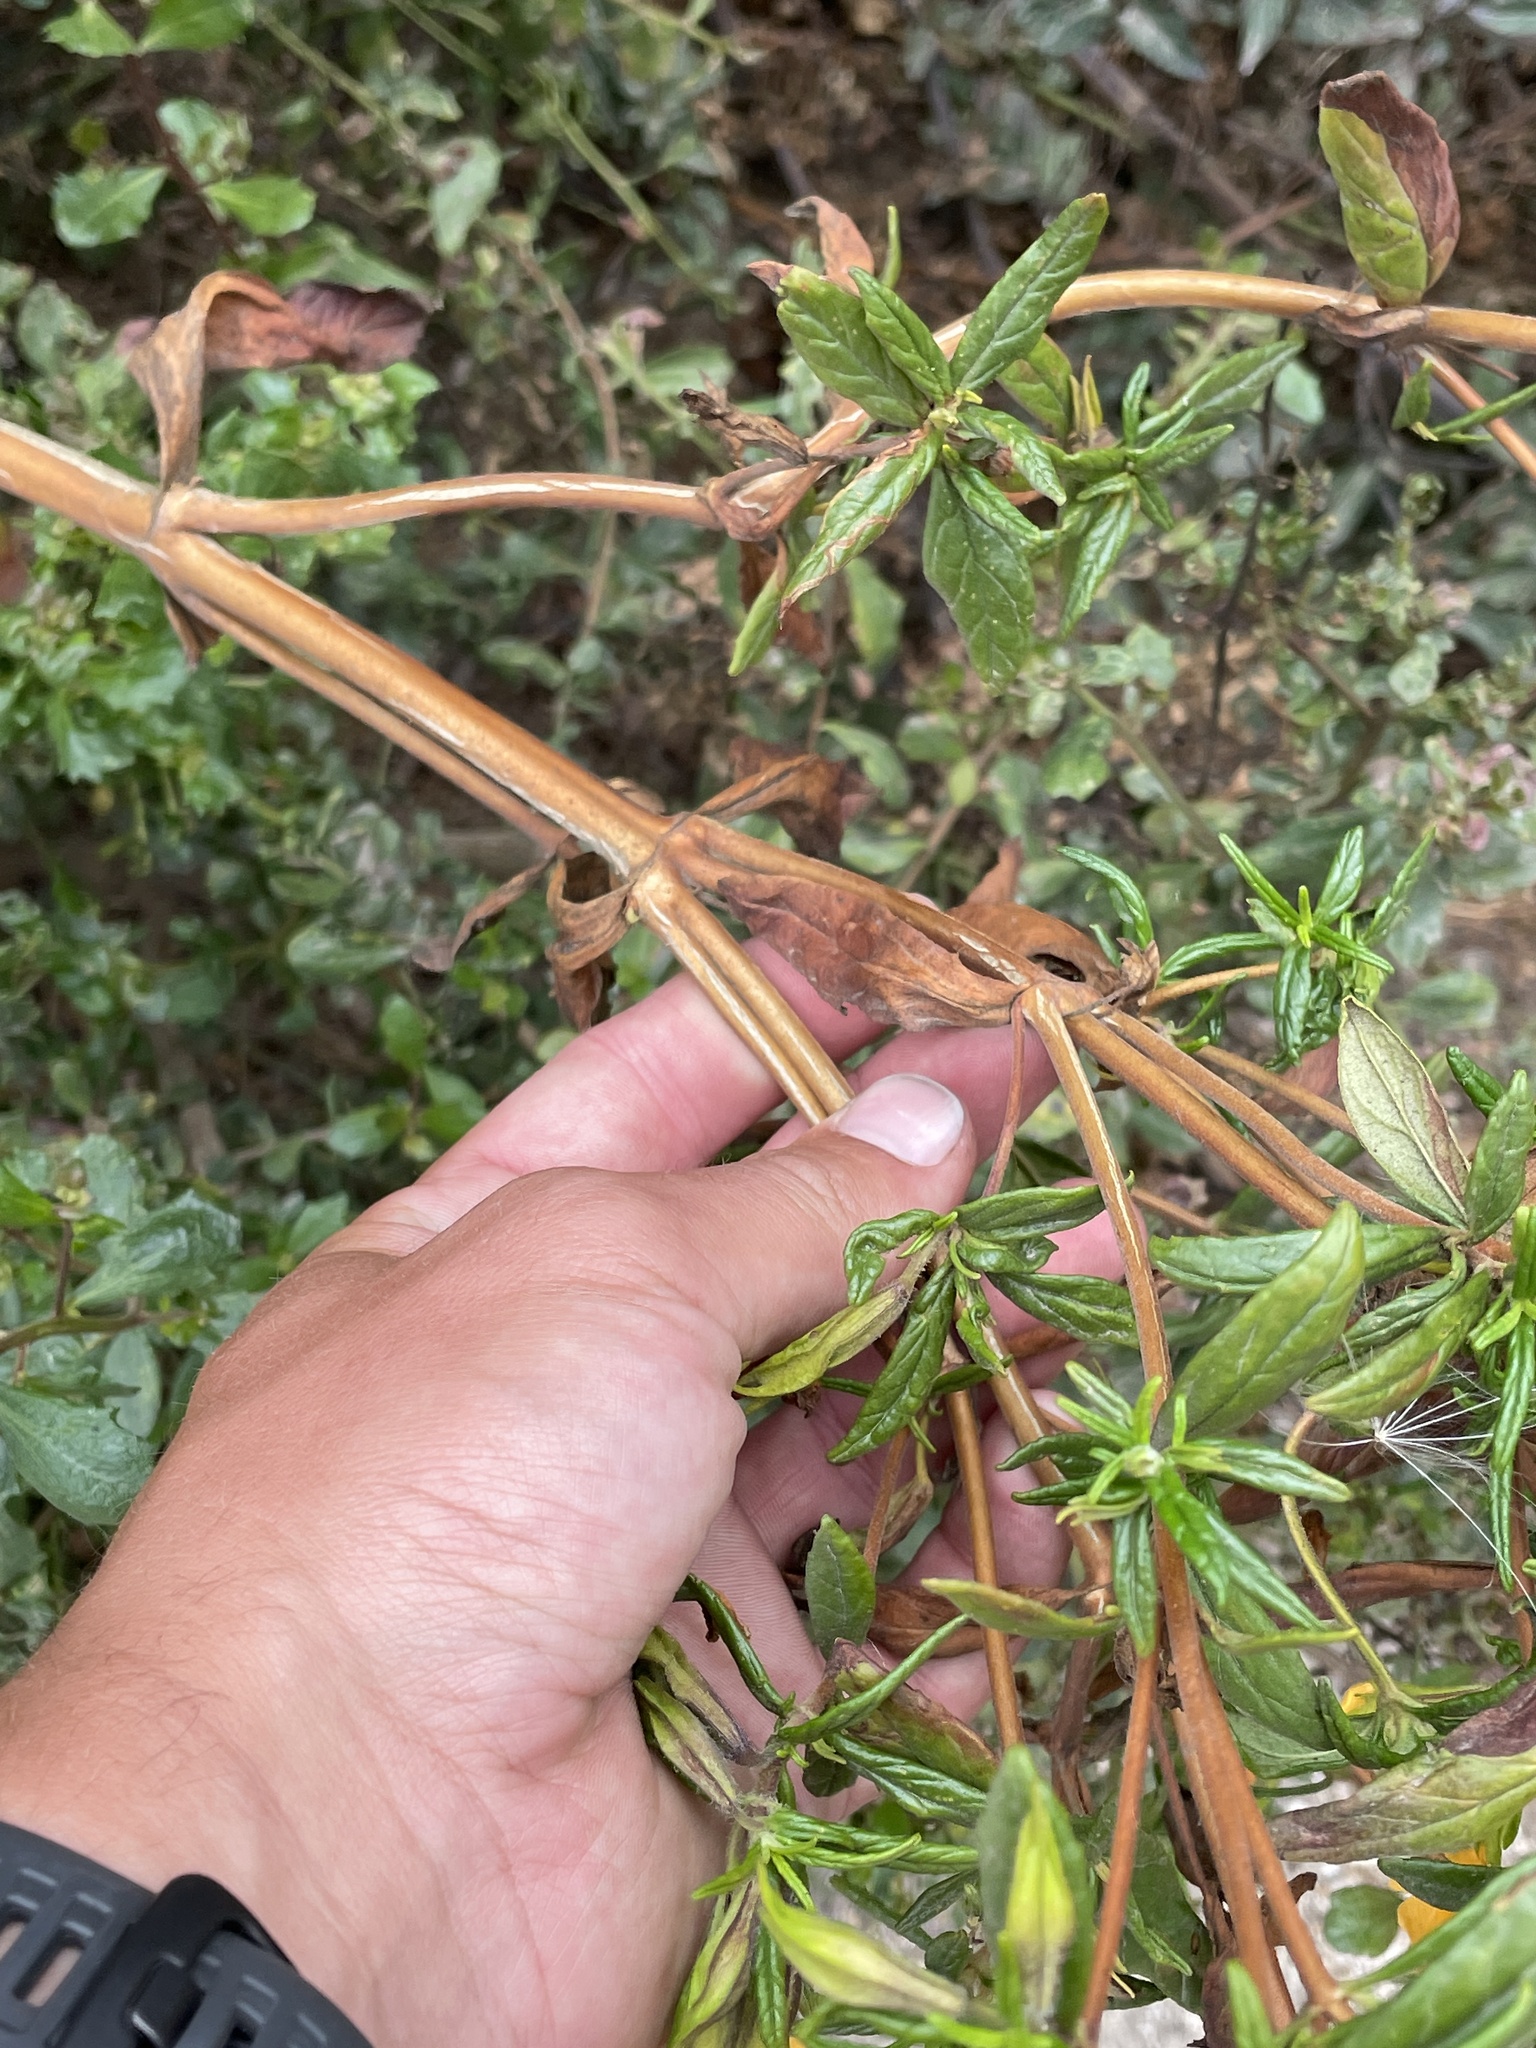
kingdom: Plantae
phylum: Tracheophyta
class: Magnoliopsida
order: Lamiales
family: Phrymaceae
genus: Diplacus
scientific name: Diplacus aurantiacus
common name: Bush monkey-flower
